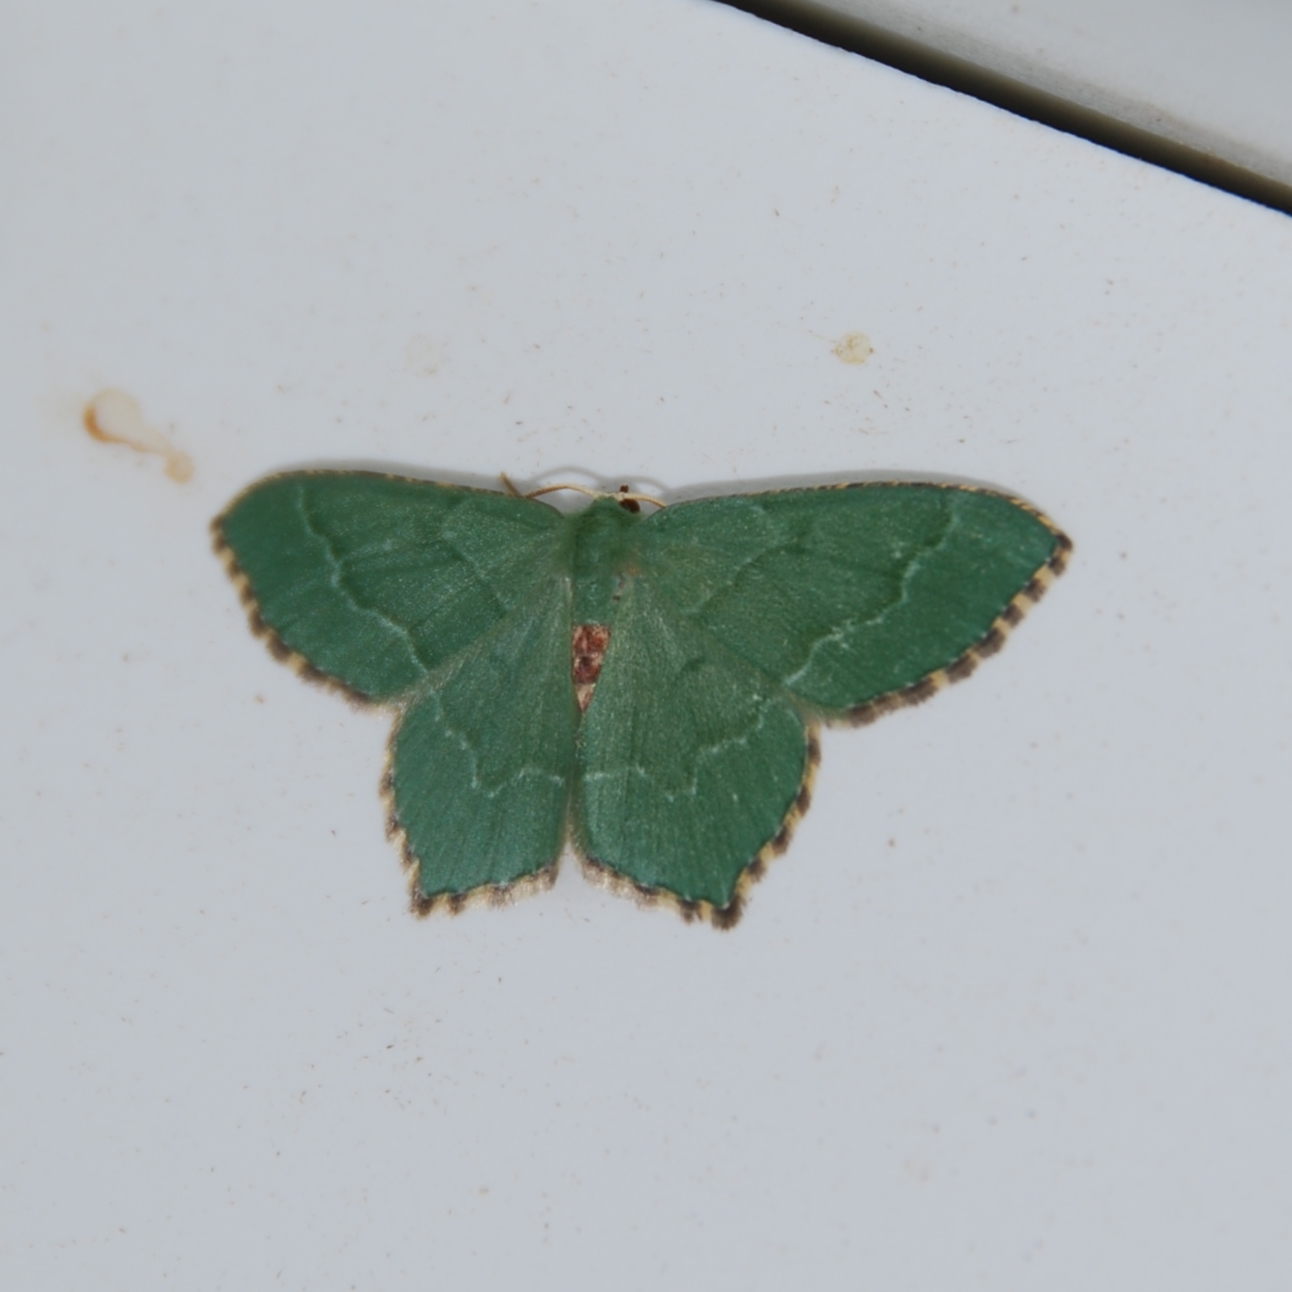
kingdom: Animalia
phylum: Arthropoda
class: Insecta
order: Lepidoptera
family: Geometridae
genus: Hemithea
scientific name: Hemithea aestivaria
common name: Common emerald
